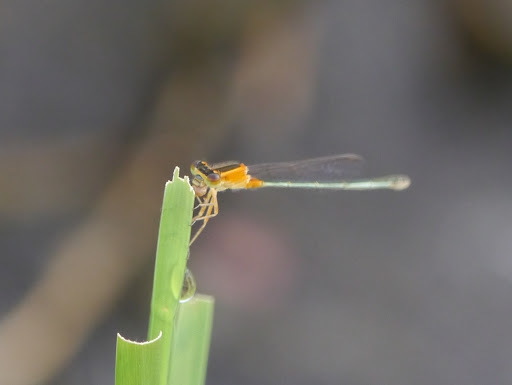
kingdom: Animalia
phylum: Arthropoda
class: Insecta
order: Odonata
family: Coenagrionidae
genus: Ischnura
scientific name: Ischnura senegalensis
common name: Tropical bluetail
